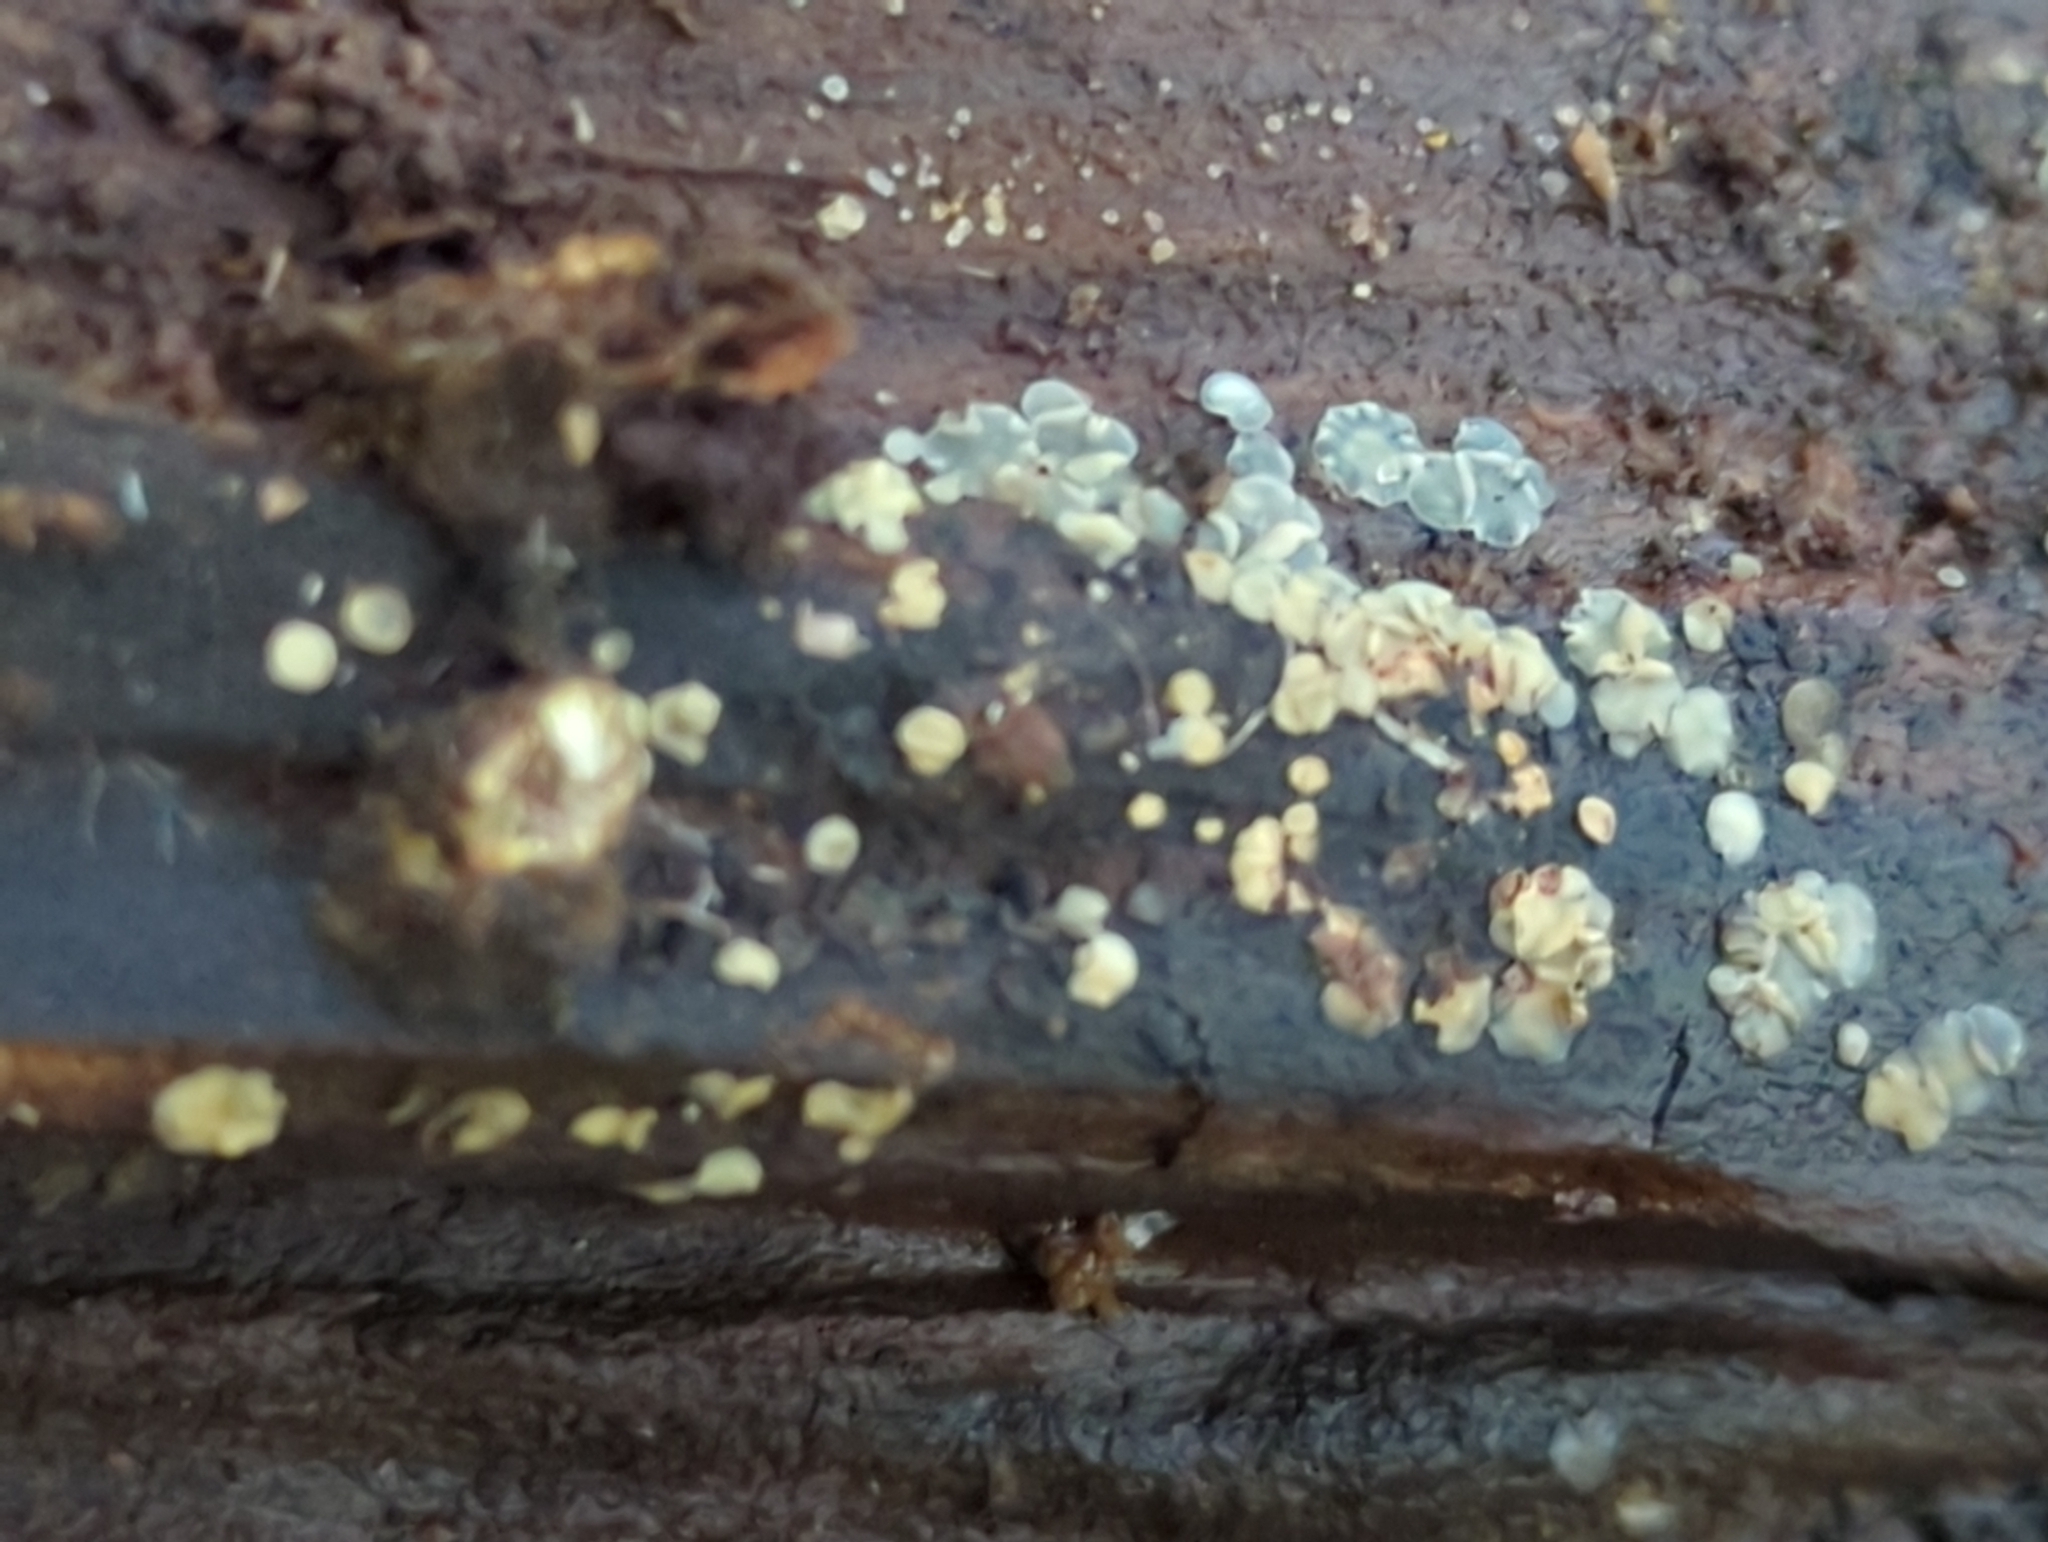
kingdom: Fungi
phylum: Ascomycota
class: Leotiomycetes
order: Helotiales
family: Mollisiaceae
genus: Mollisia
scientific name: Mollisia oblonga
